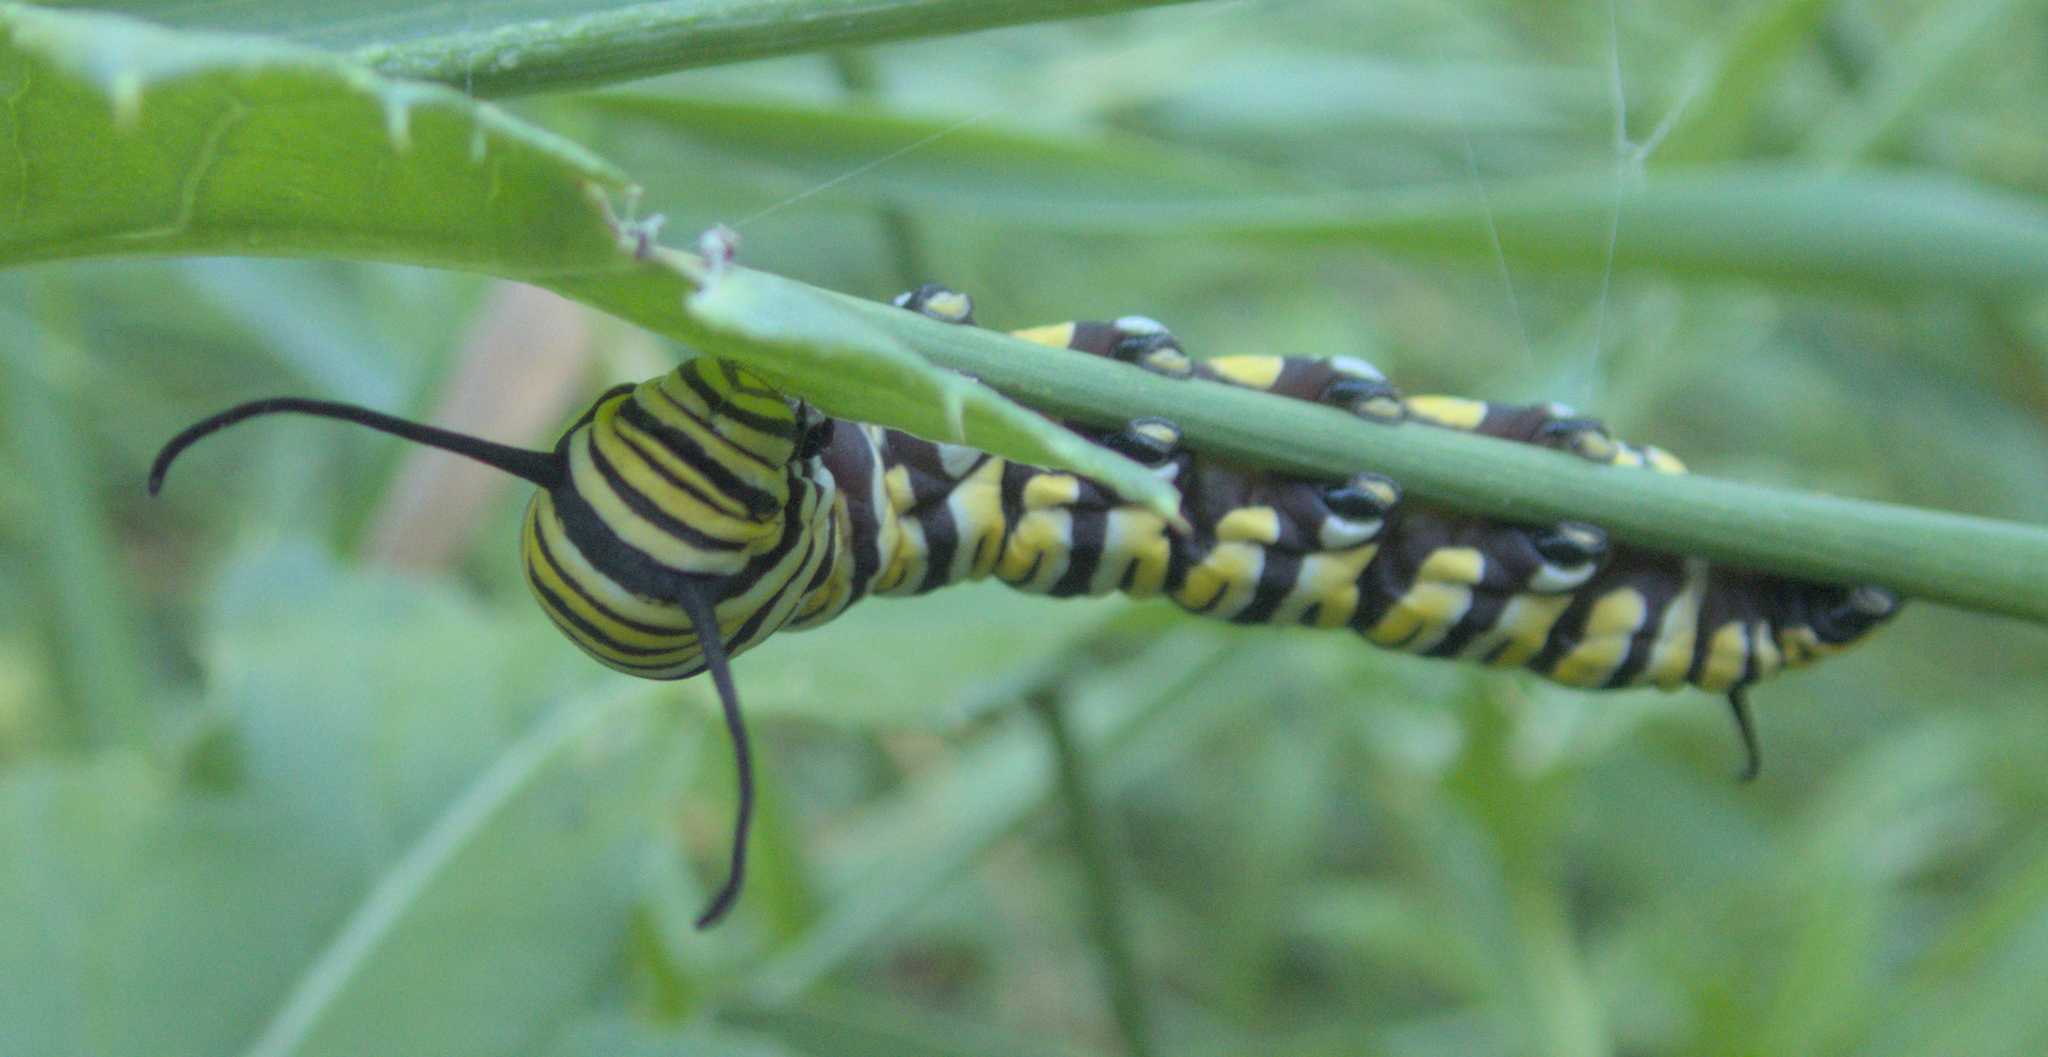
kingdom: Animalia
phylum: Arthropoda
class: Insecta
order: Lepidoptera
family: Nymphalidae
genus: Danaus
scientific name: Danaus plexippus
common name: Monarch
